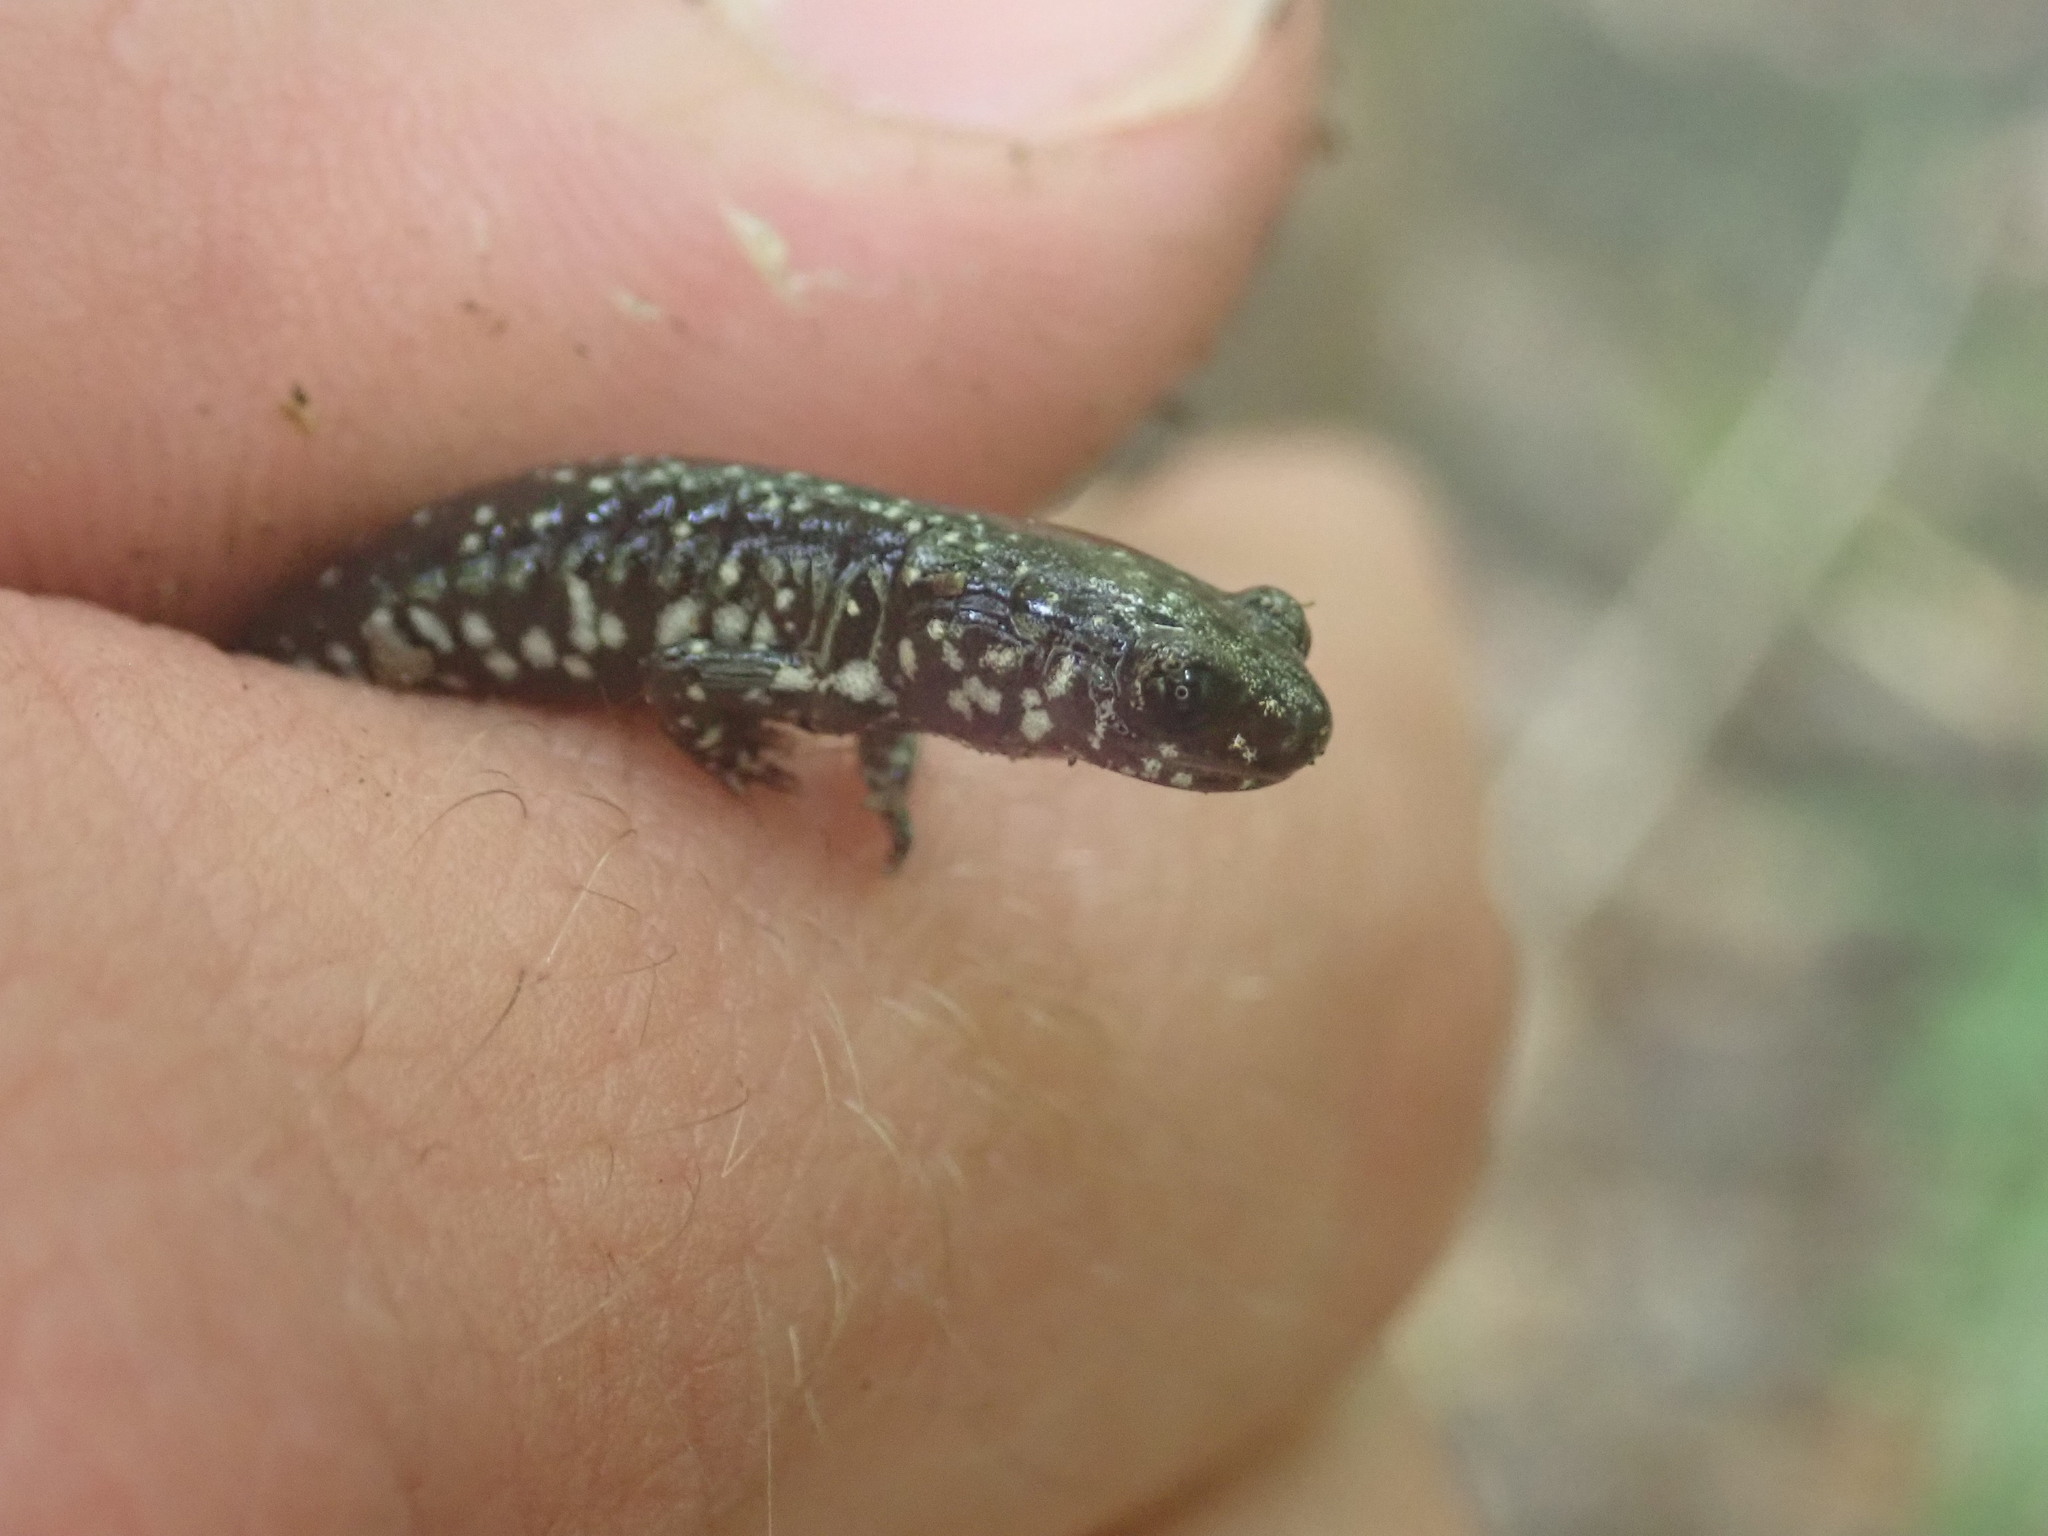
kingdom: Animalia
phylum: Chordata
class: Amphibia
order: Caudata
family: Plethodontidae
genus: Plethodon
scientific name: Plethodon mississippi
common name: Mississippi slimy salamander
